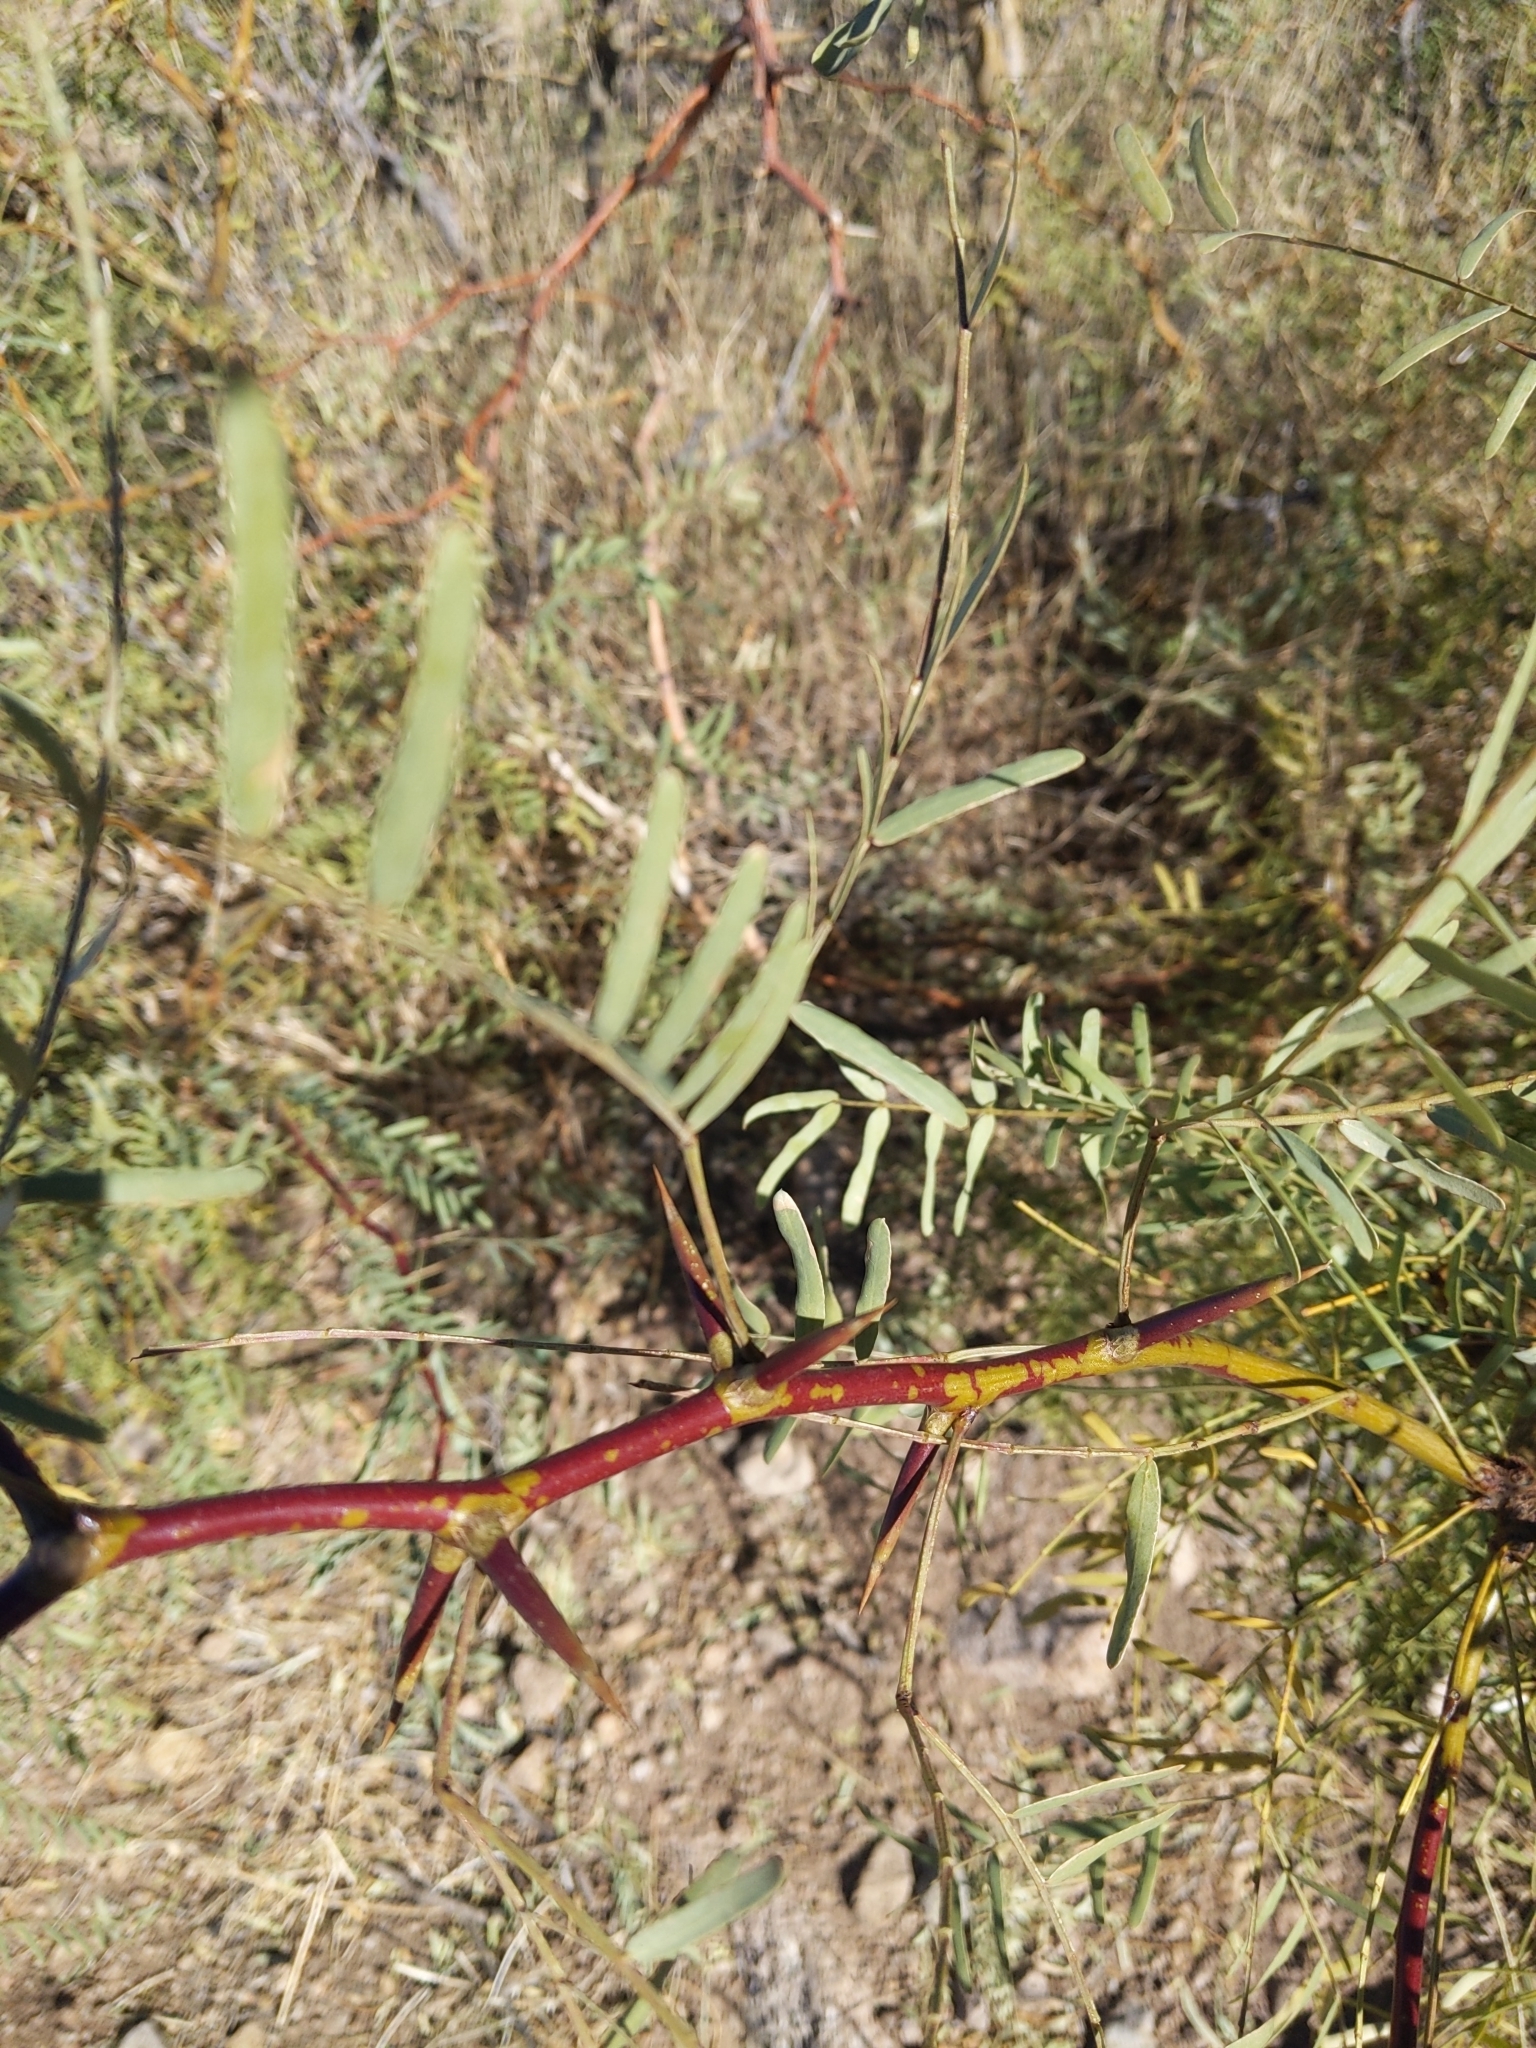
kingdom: Plantae
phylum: Tracheophyta
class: Magnoliopsida
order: Fabales
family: Fabaceae
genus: Prosopis
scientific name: Prosopis glandulosa
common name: Honey mesquite
